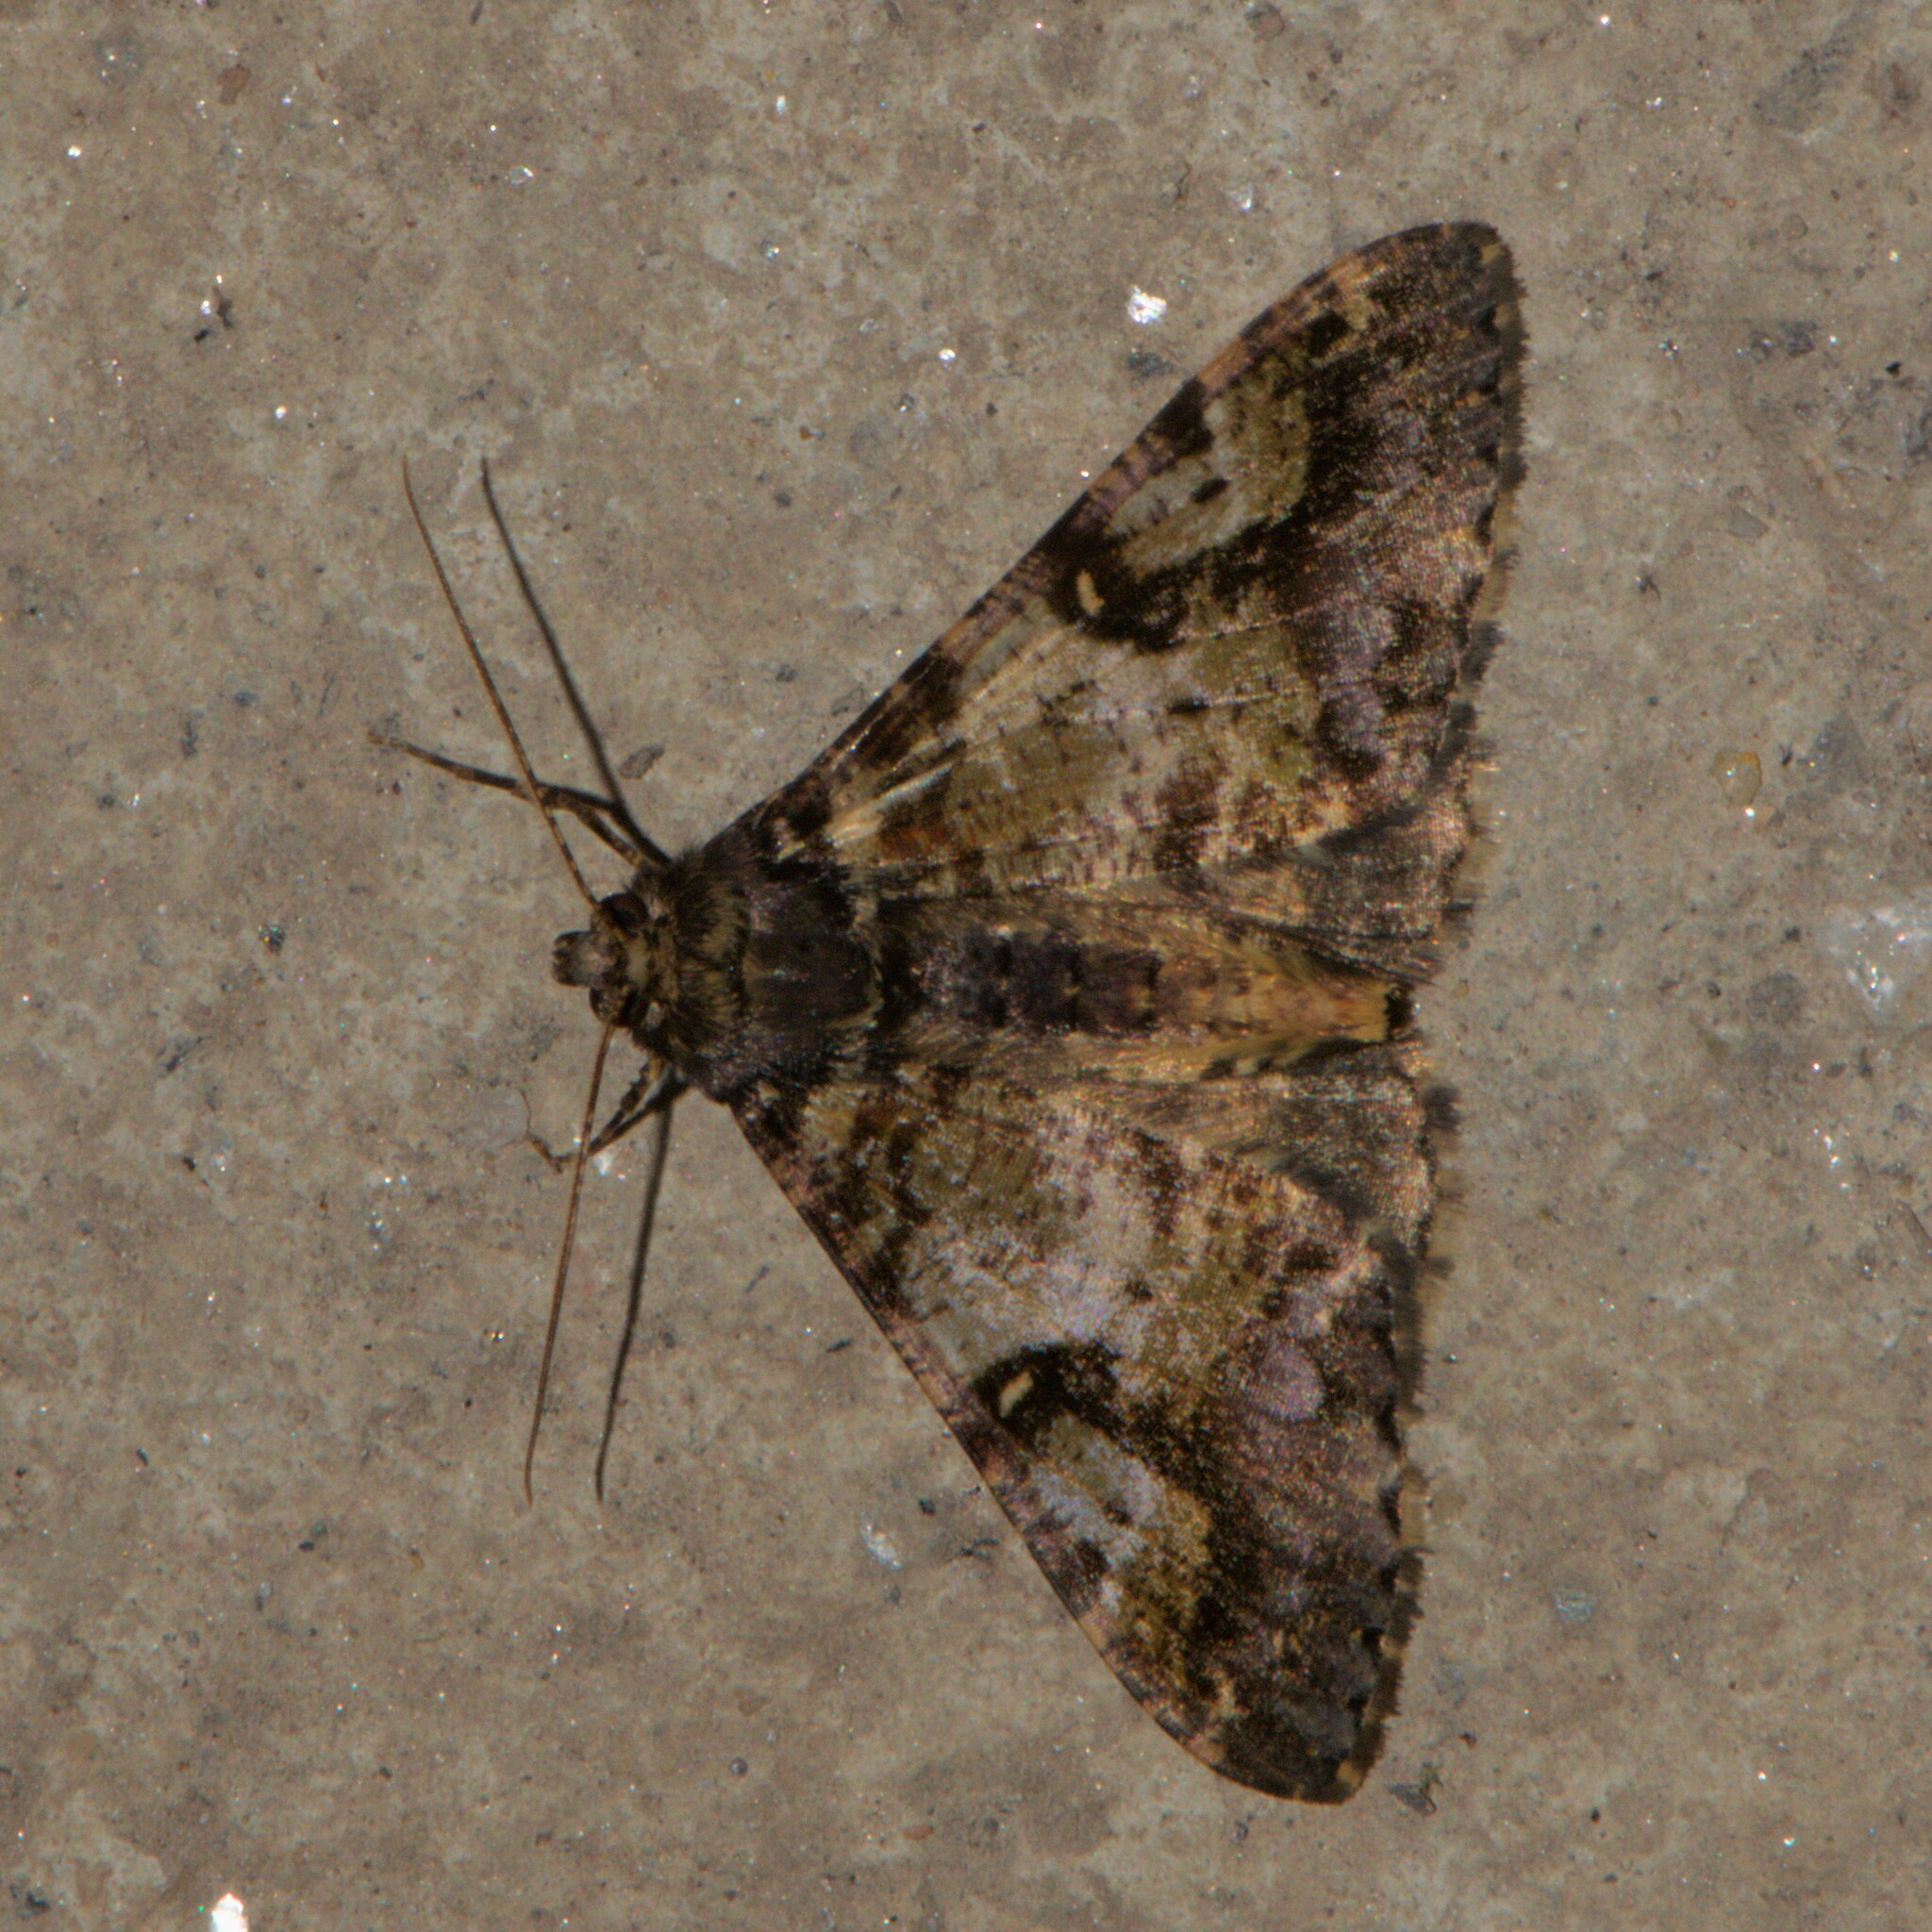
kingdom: Animalia
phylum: Arthropoda
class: Insecta
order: Lepidoptera
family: Geometridae
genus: Gasterocome
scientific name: Gasterocome pannosaria
